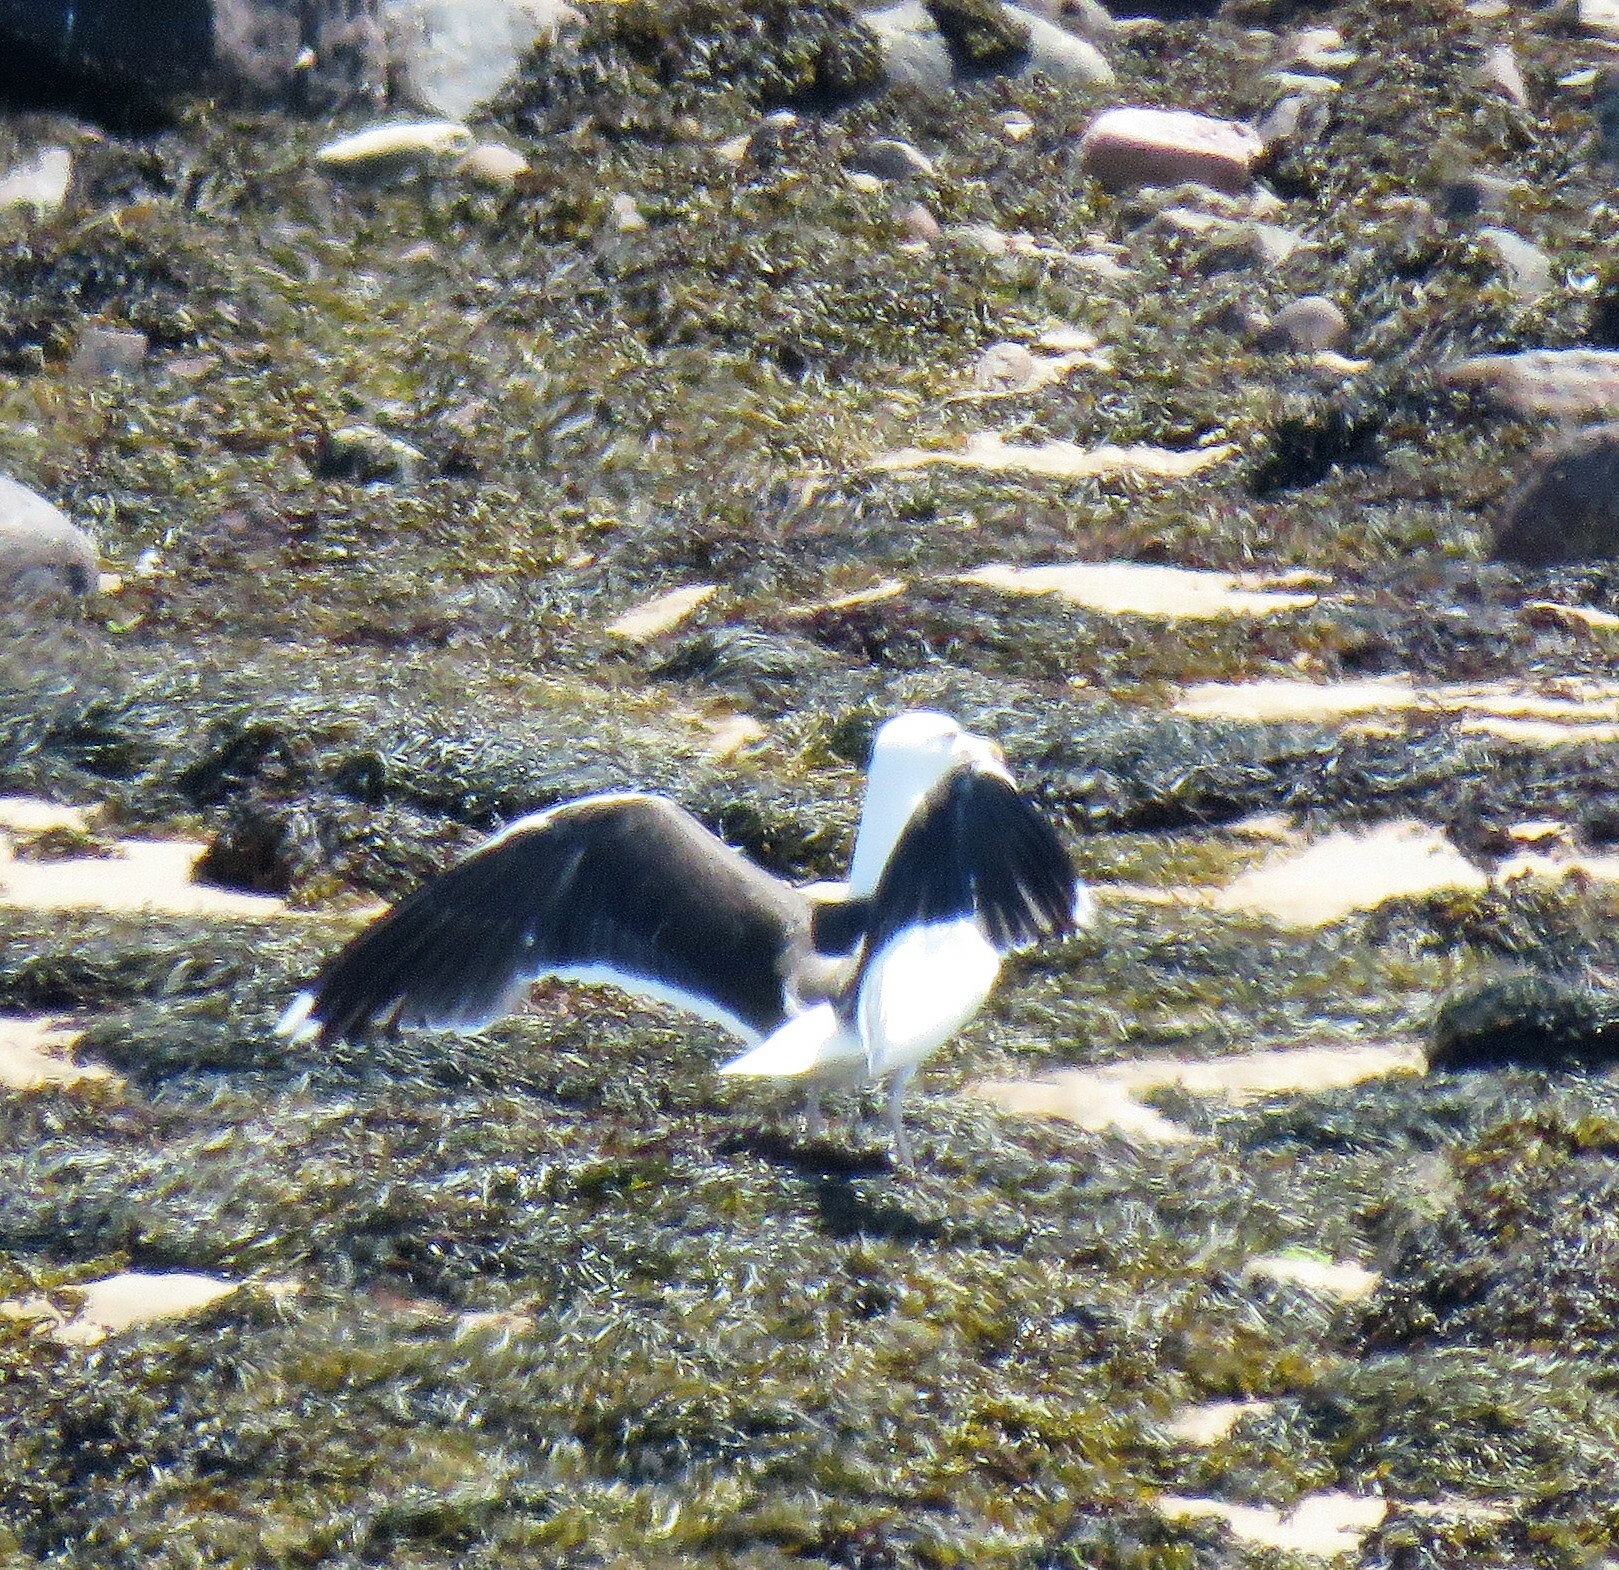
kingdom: Animalia
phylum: Chordata
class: Aves
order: Charadriiformes
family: Laridae
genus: Larus
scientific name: Larus marinus
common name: Great black-backed gull
